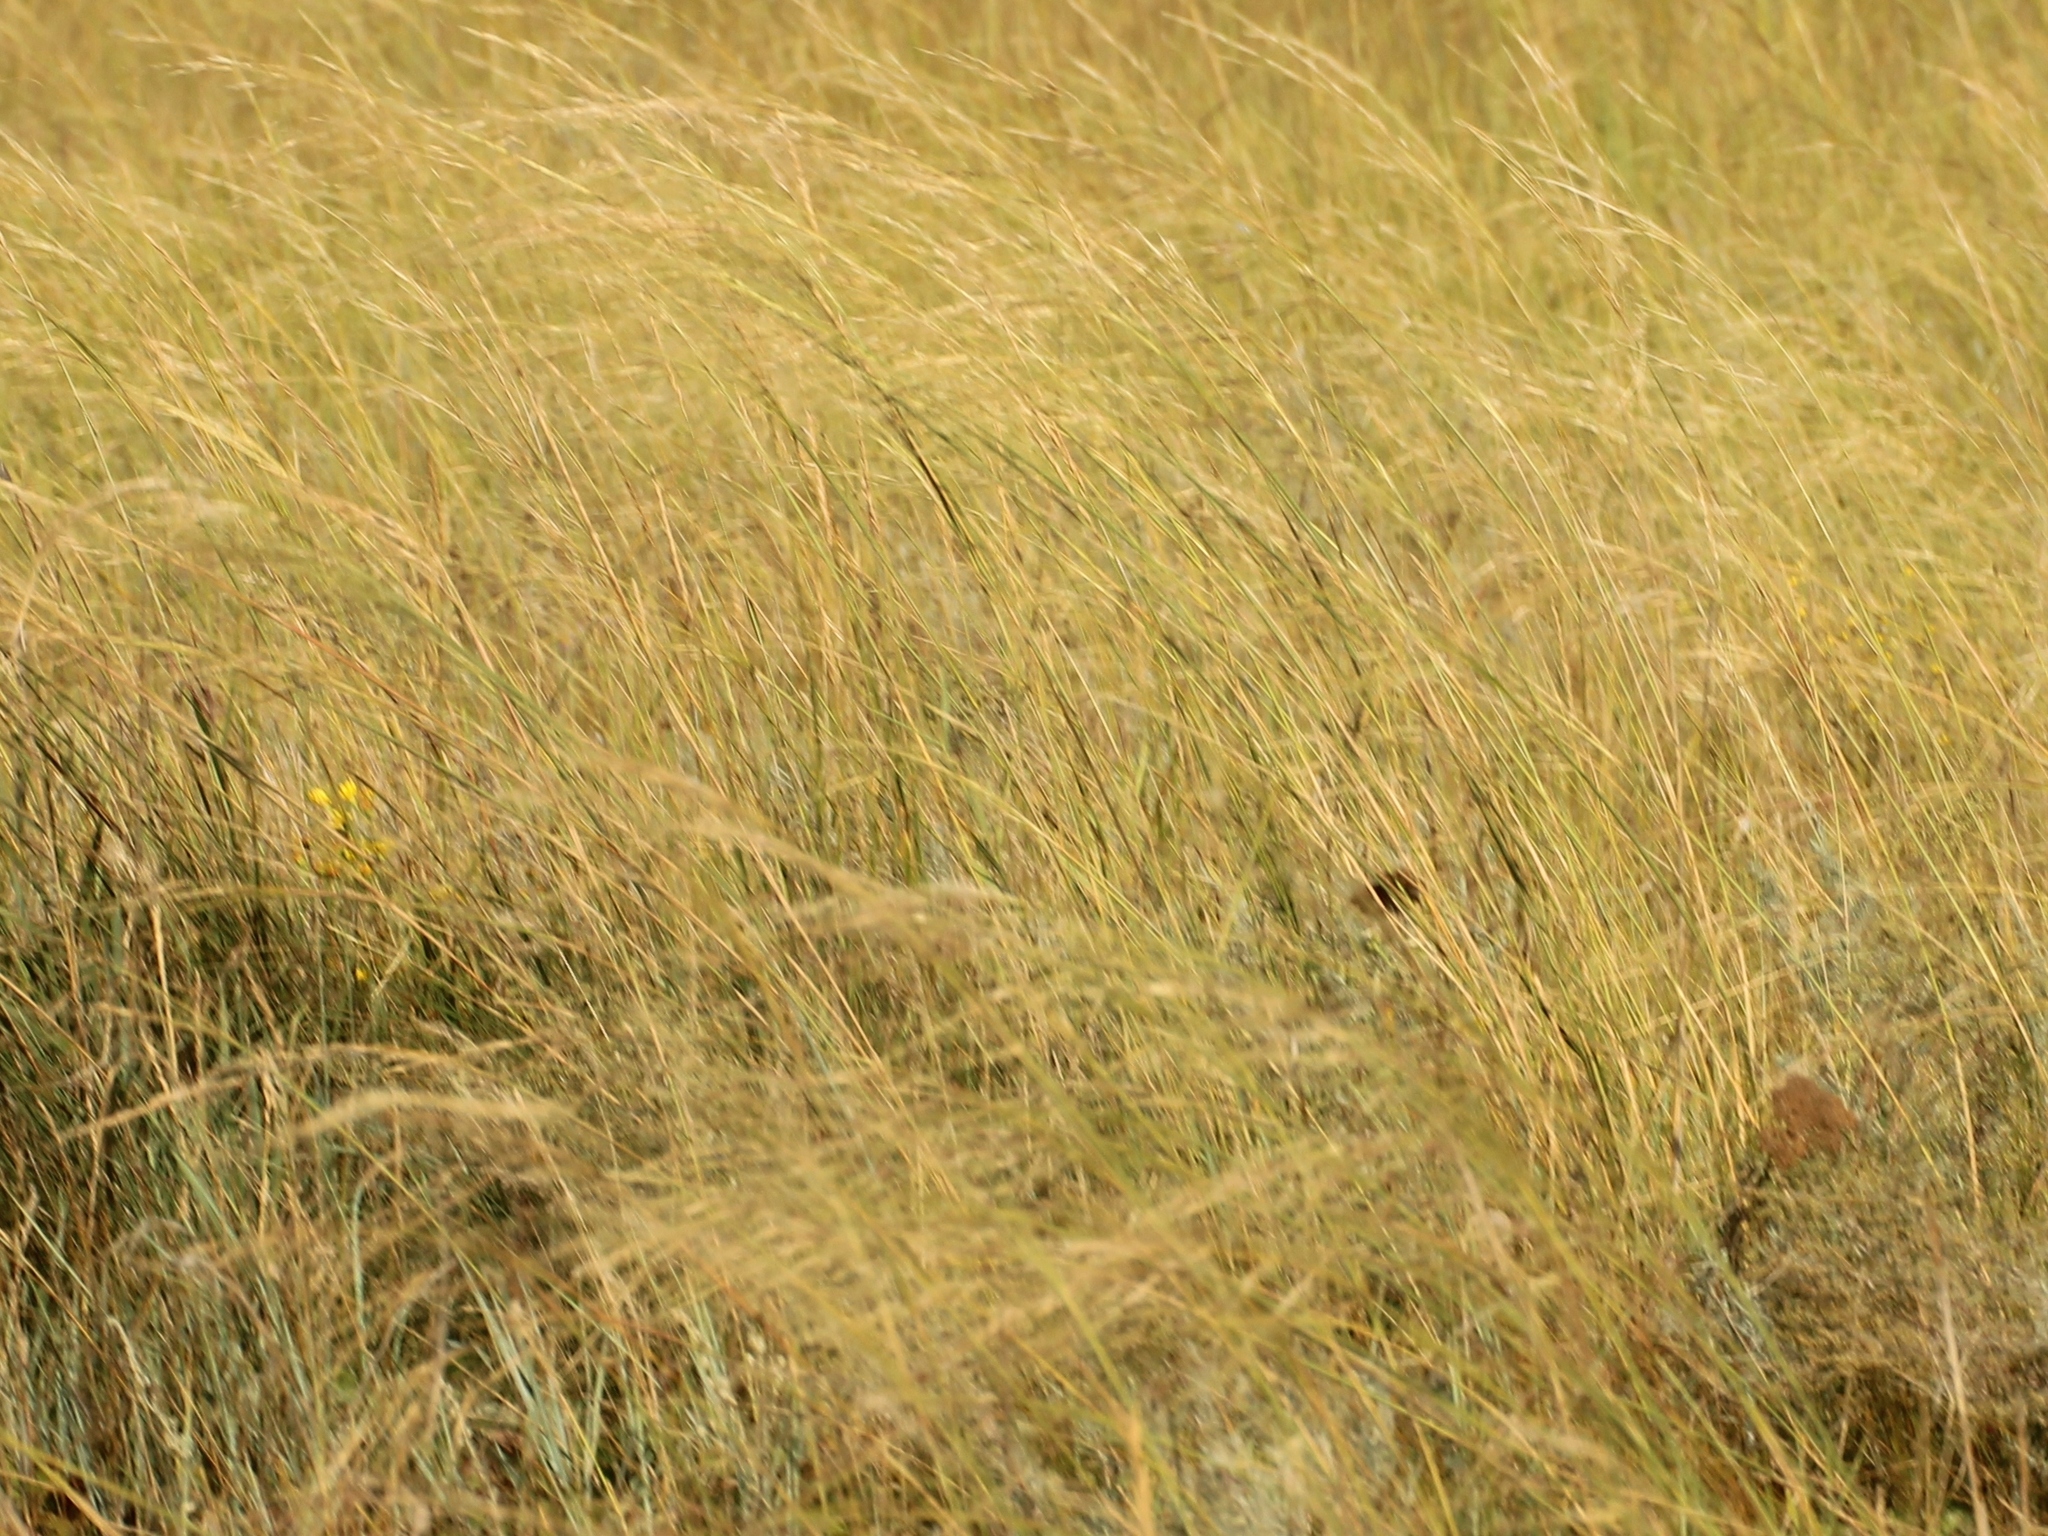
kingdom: Plantae
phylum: Tracheophyta
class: Liliopsida
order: Poales
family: Poaceae
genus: Stipa
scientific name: Stipa capillata
